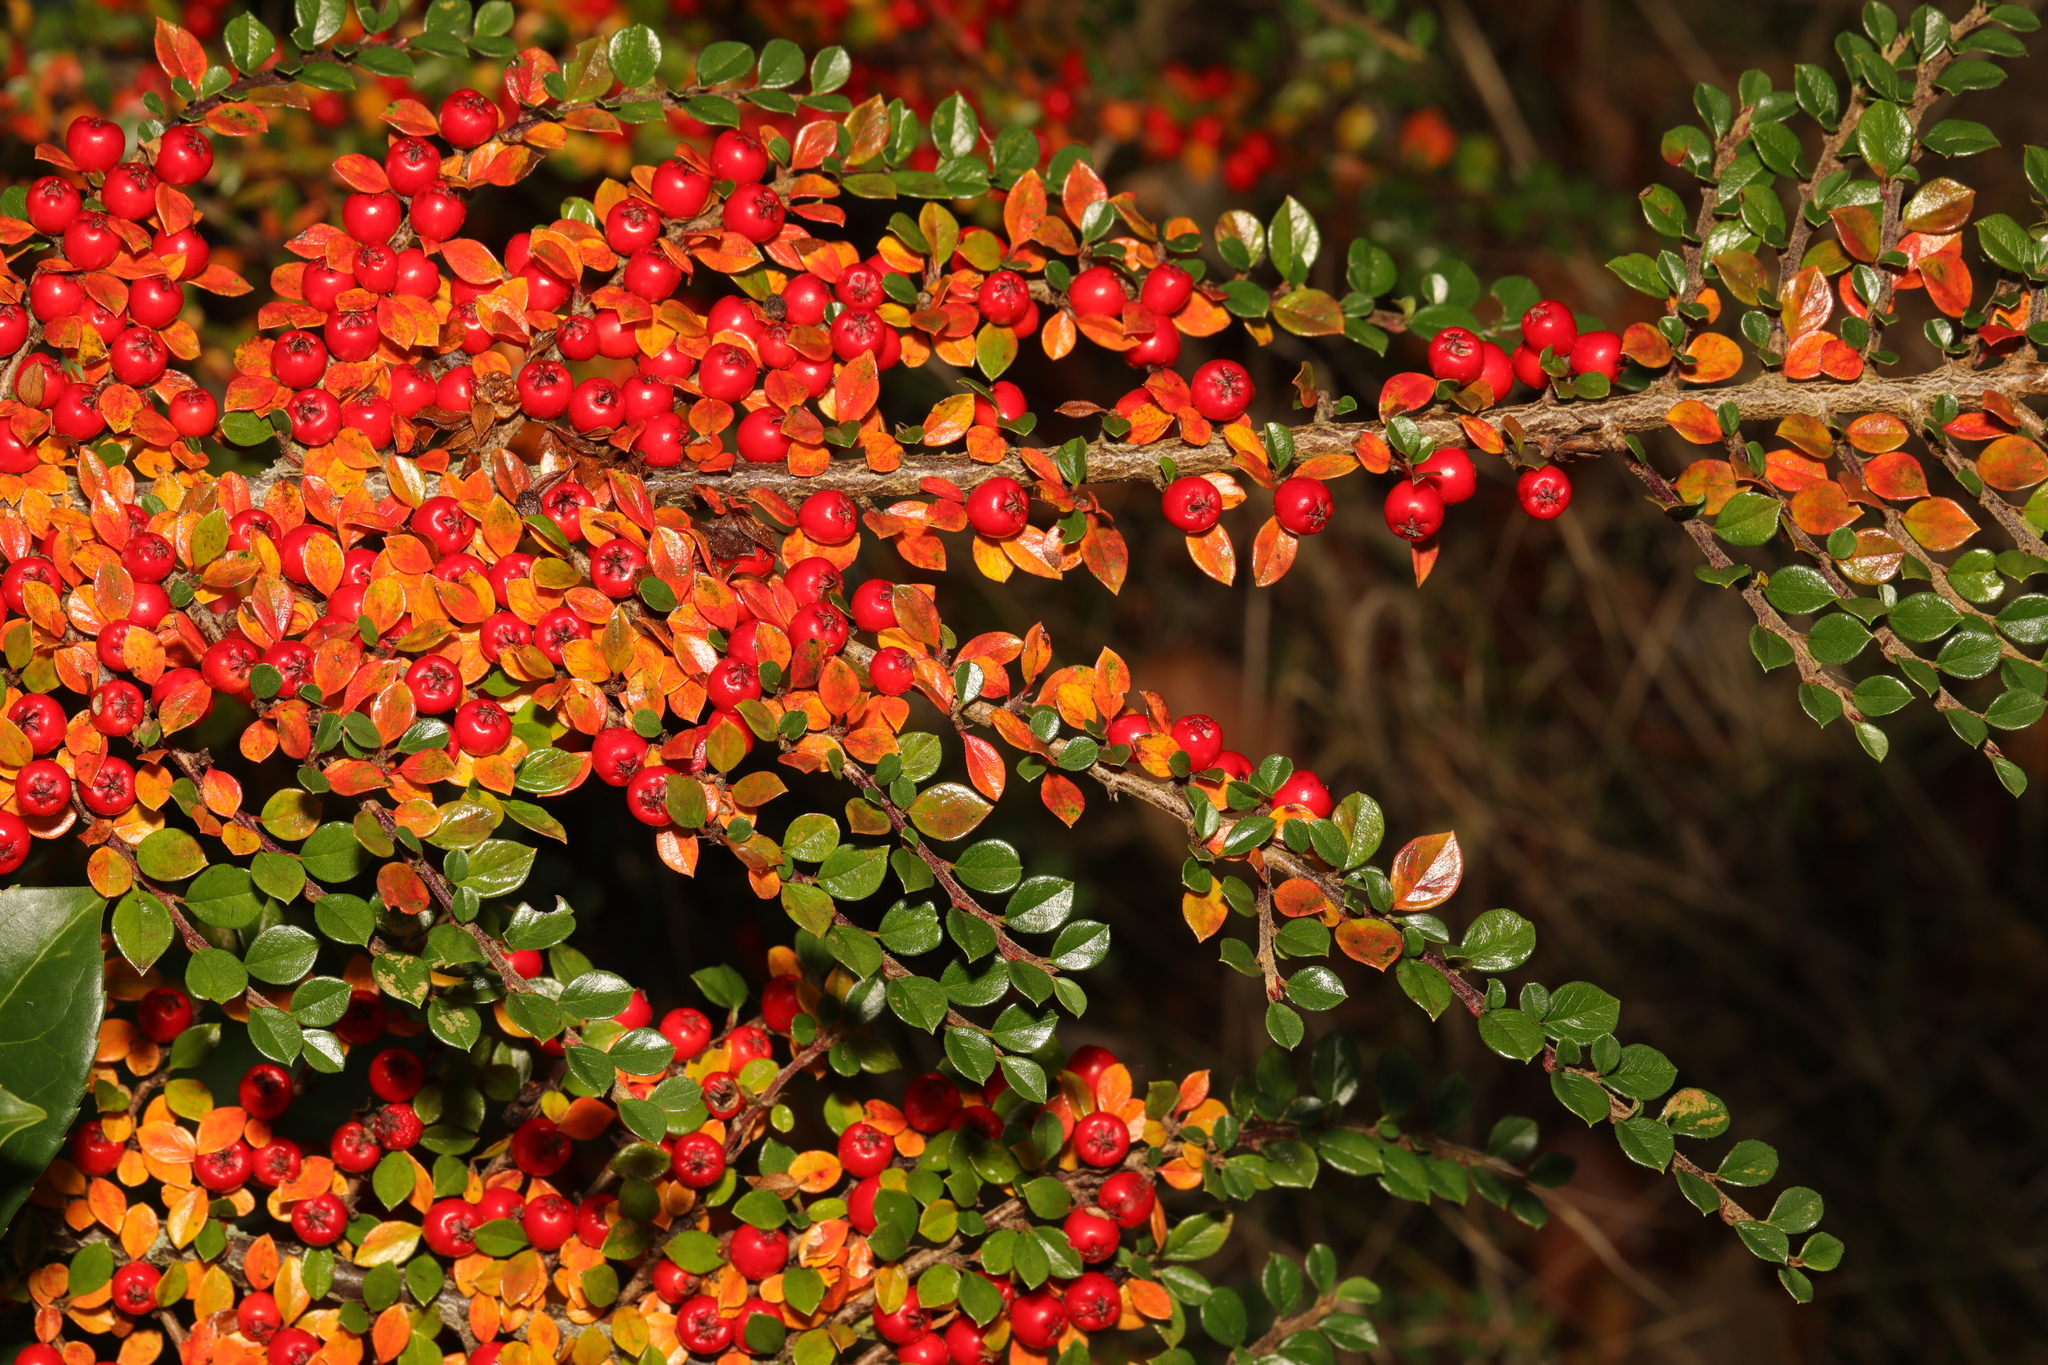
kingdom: Plantae
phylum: Tracheophyta
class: Magnoliopsida
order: Rosales
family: Rosaceae
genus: Cotoneaster
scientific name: Cotoneaster horizontalis
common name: Wall cotoneaster
